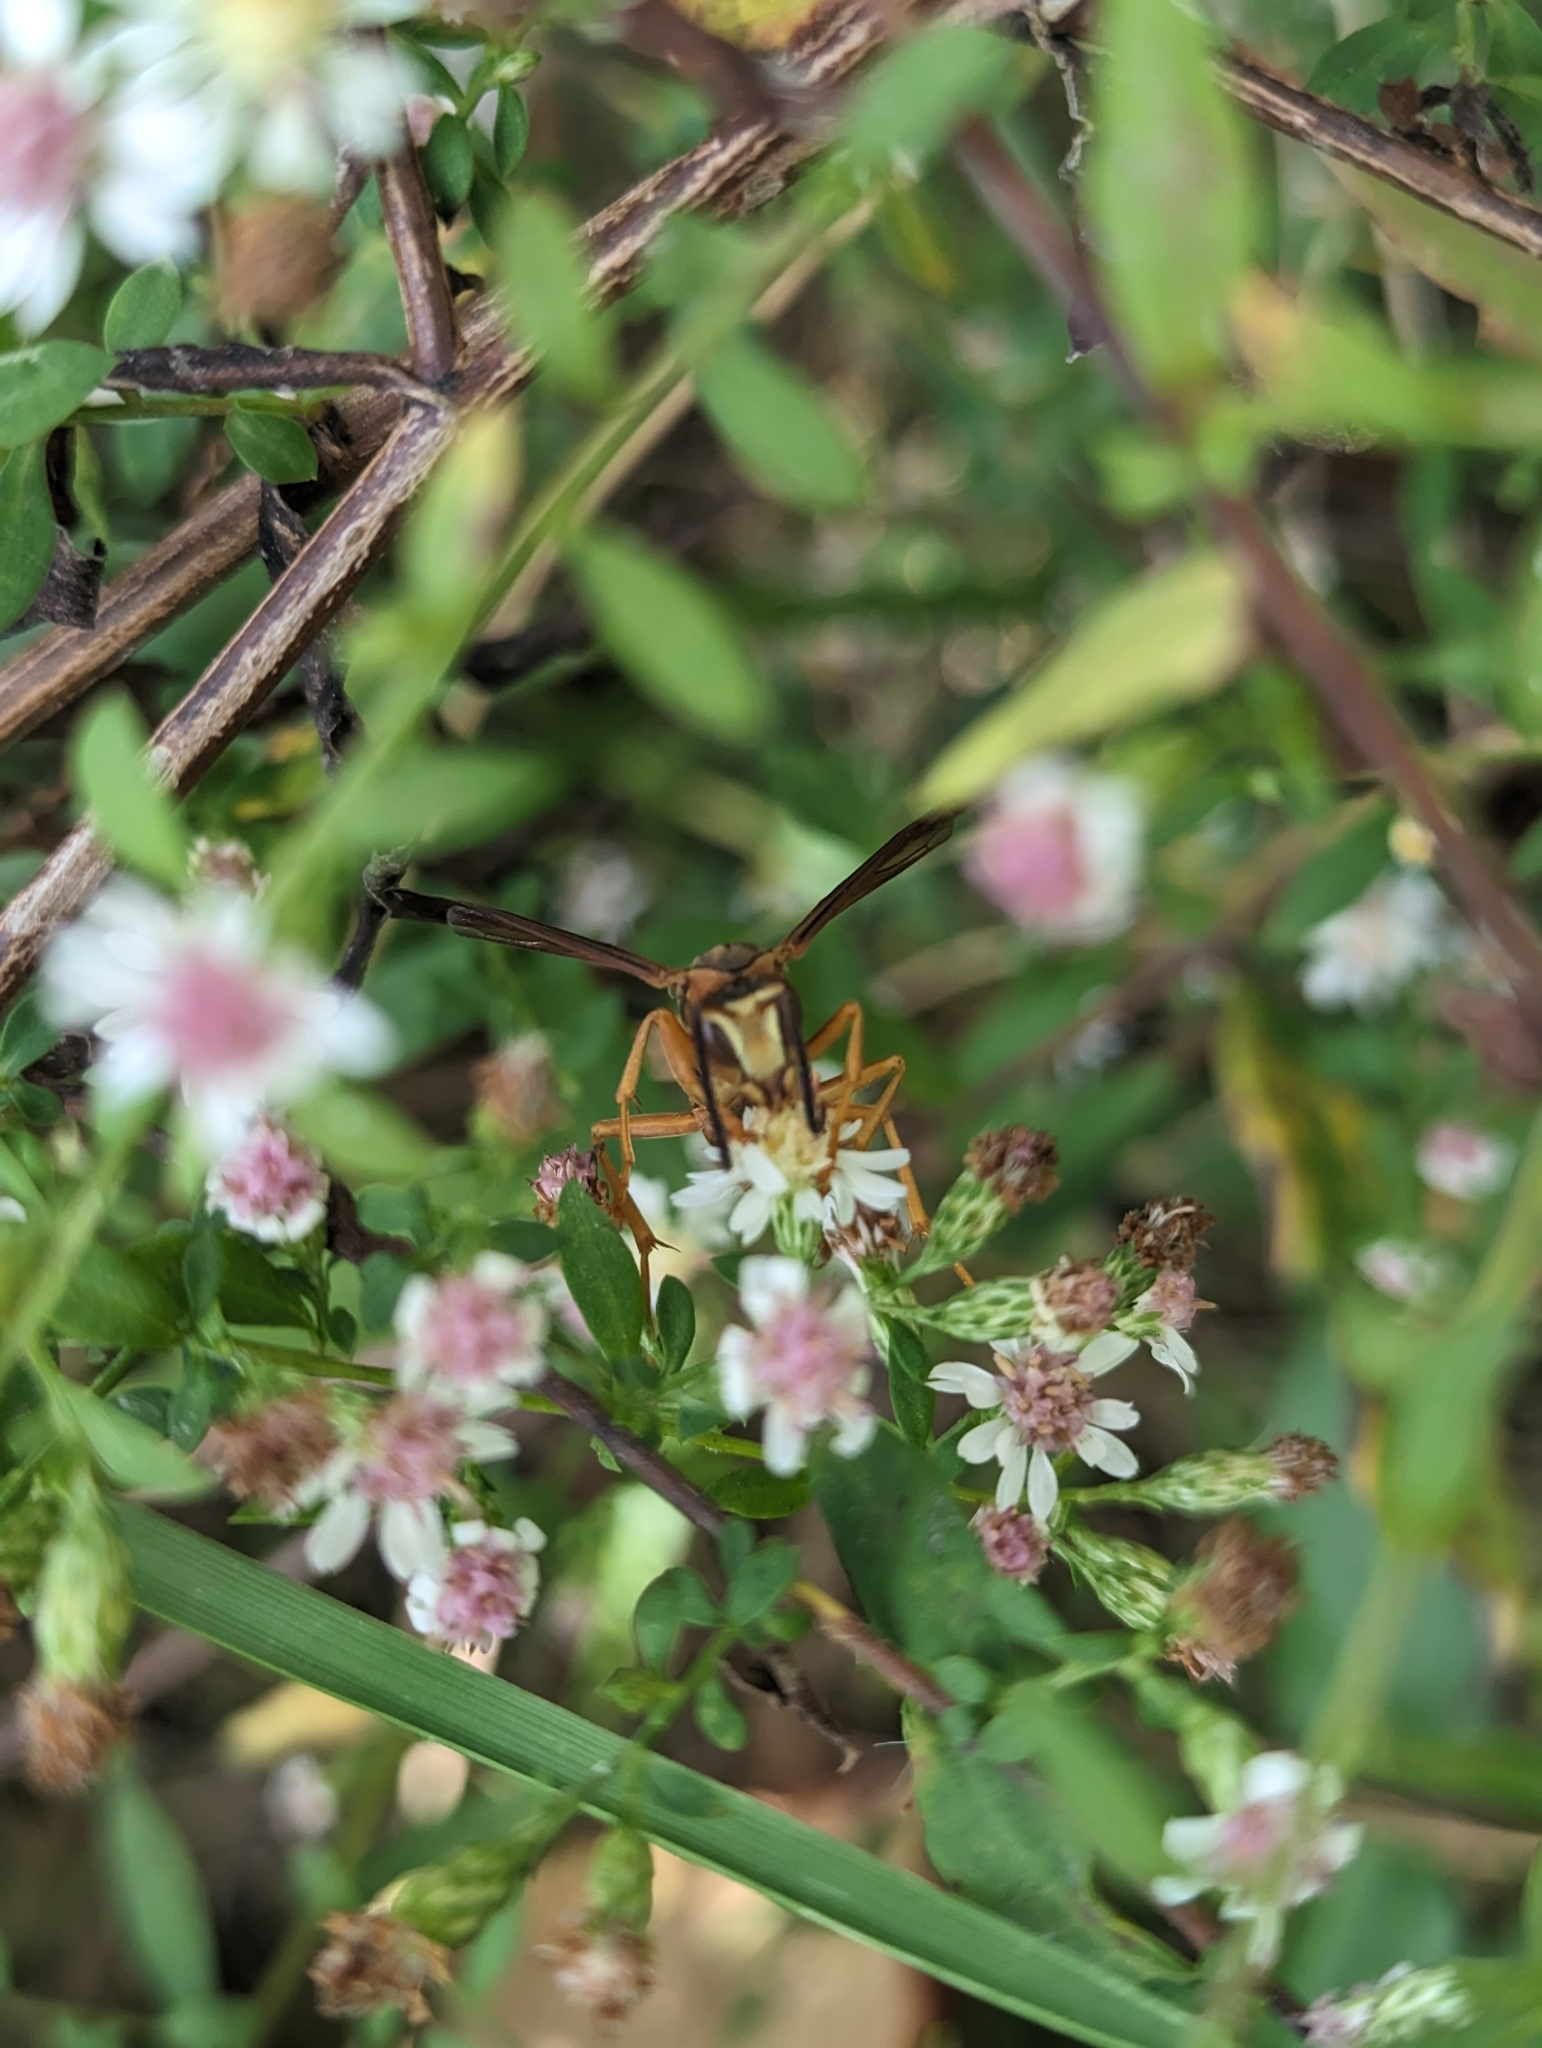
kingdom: Animalia
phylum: Arthropoda
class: Insecta
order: Hymenoptera
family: Eumenidae
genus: Polistes
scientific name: Polistes carolina
